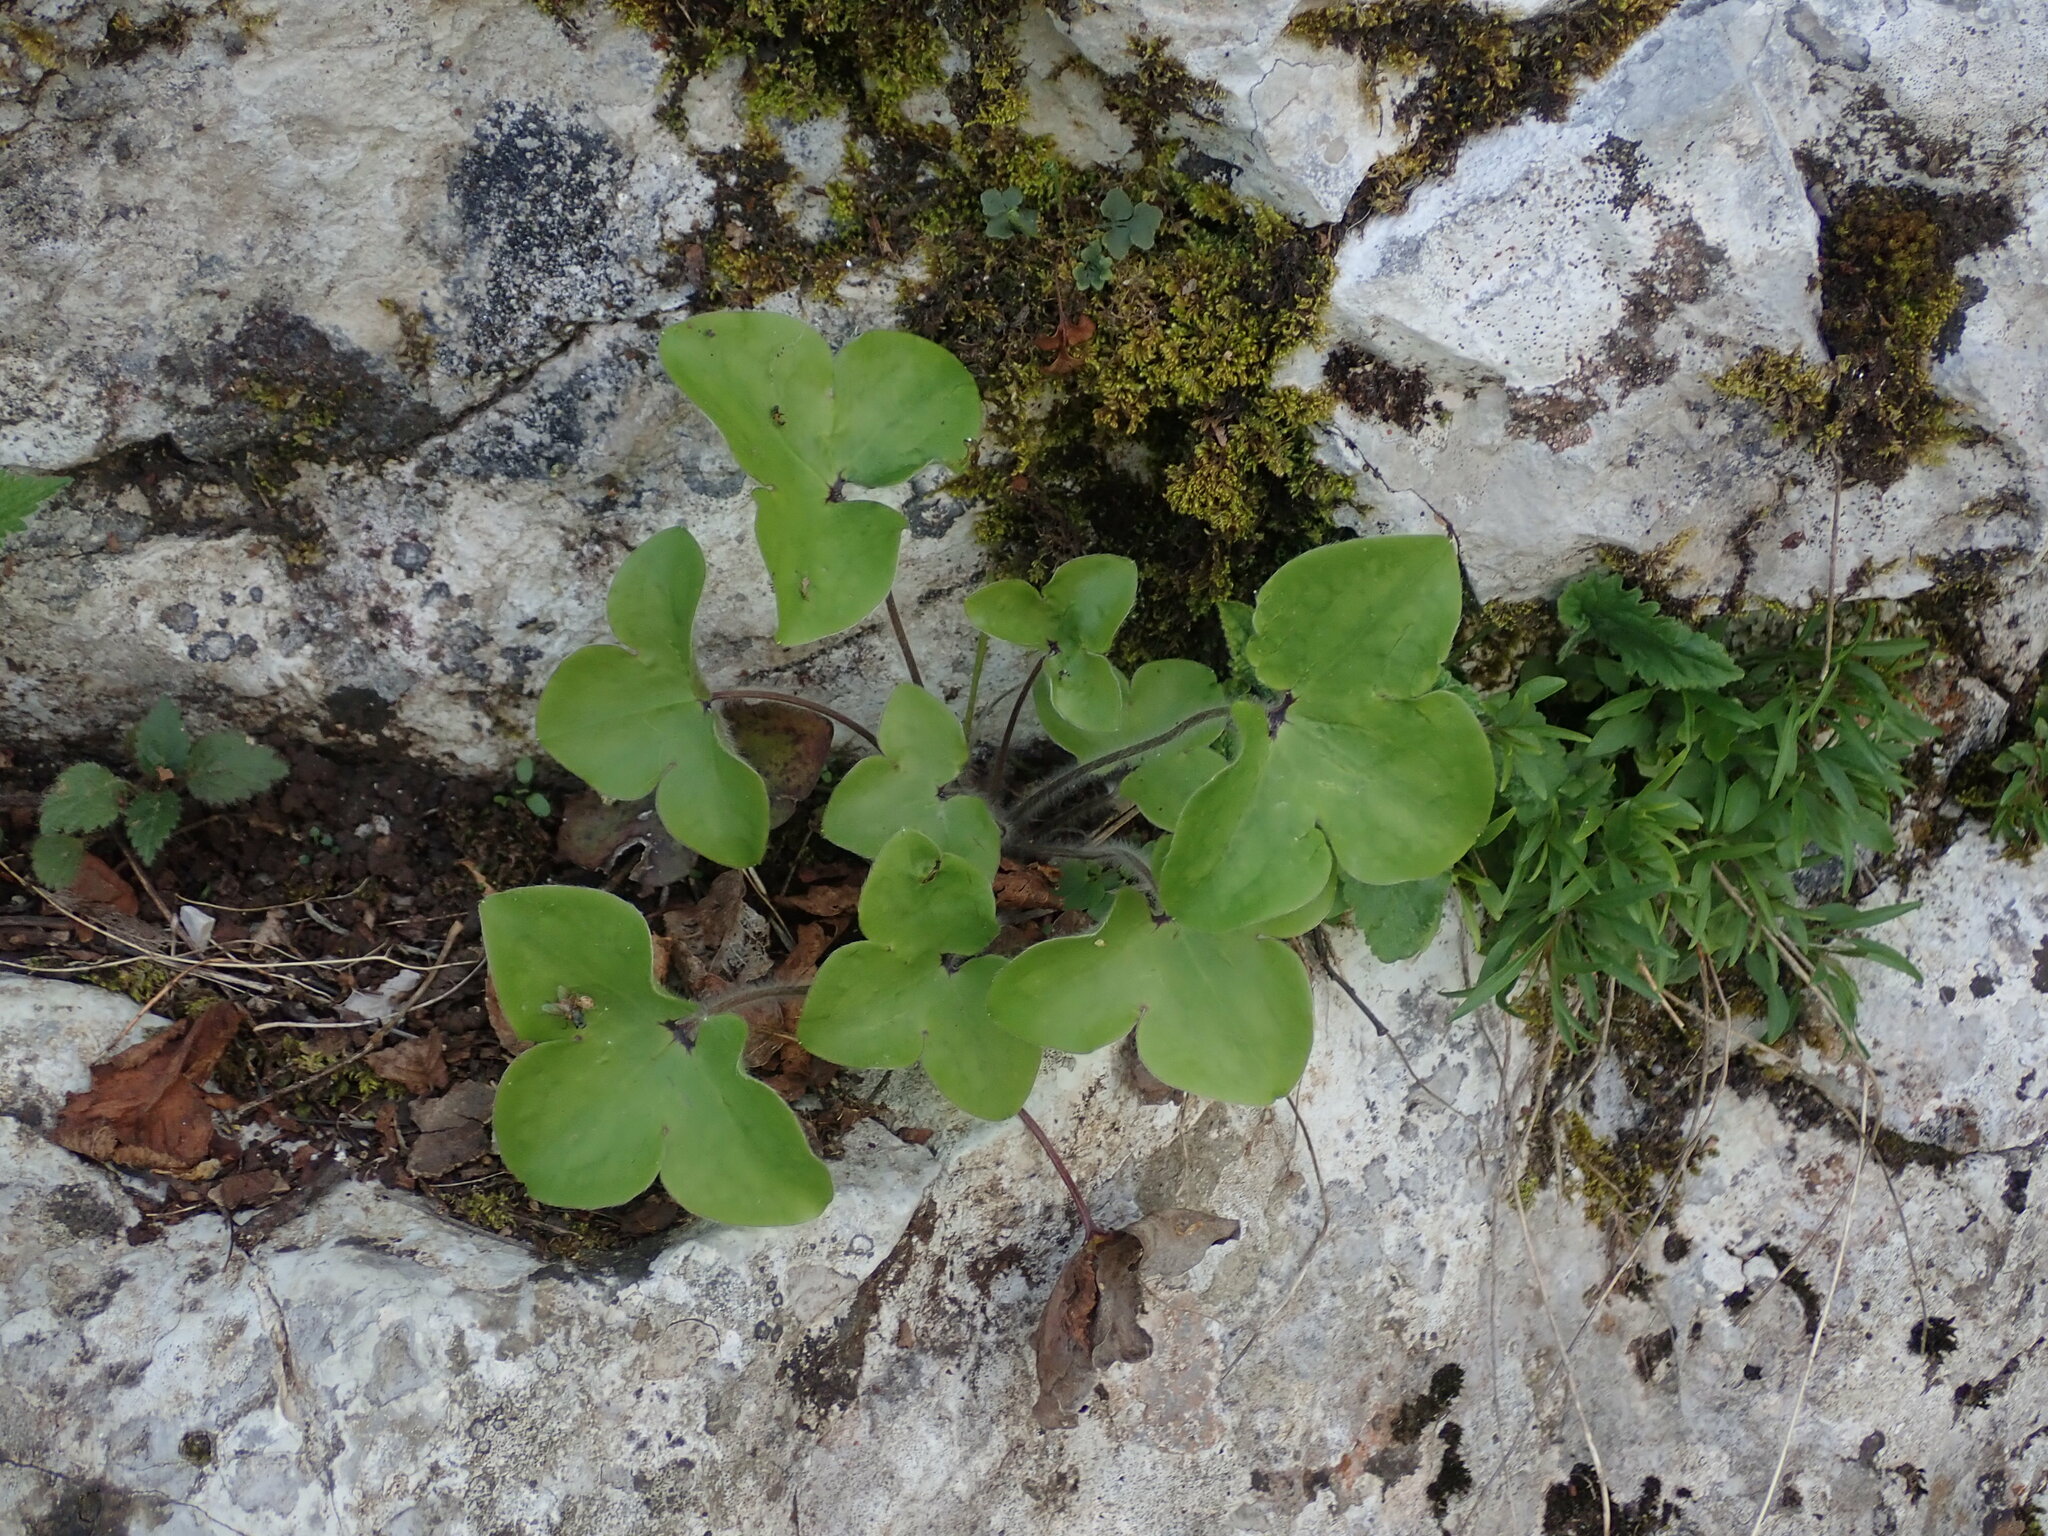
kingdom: Plantae
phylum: Tracheophyta
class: Magnoliopsida
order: Ranunculales
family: Ranunculaceae
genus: Hepatica
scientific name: Hepatica nobilis
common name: Liverleaf
